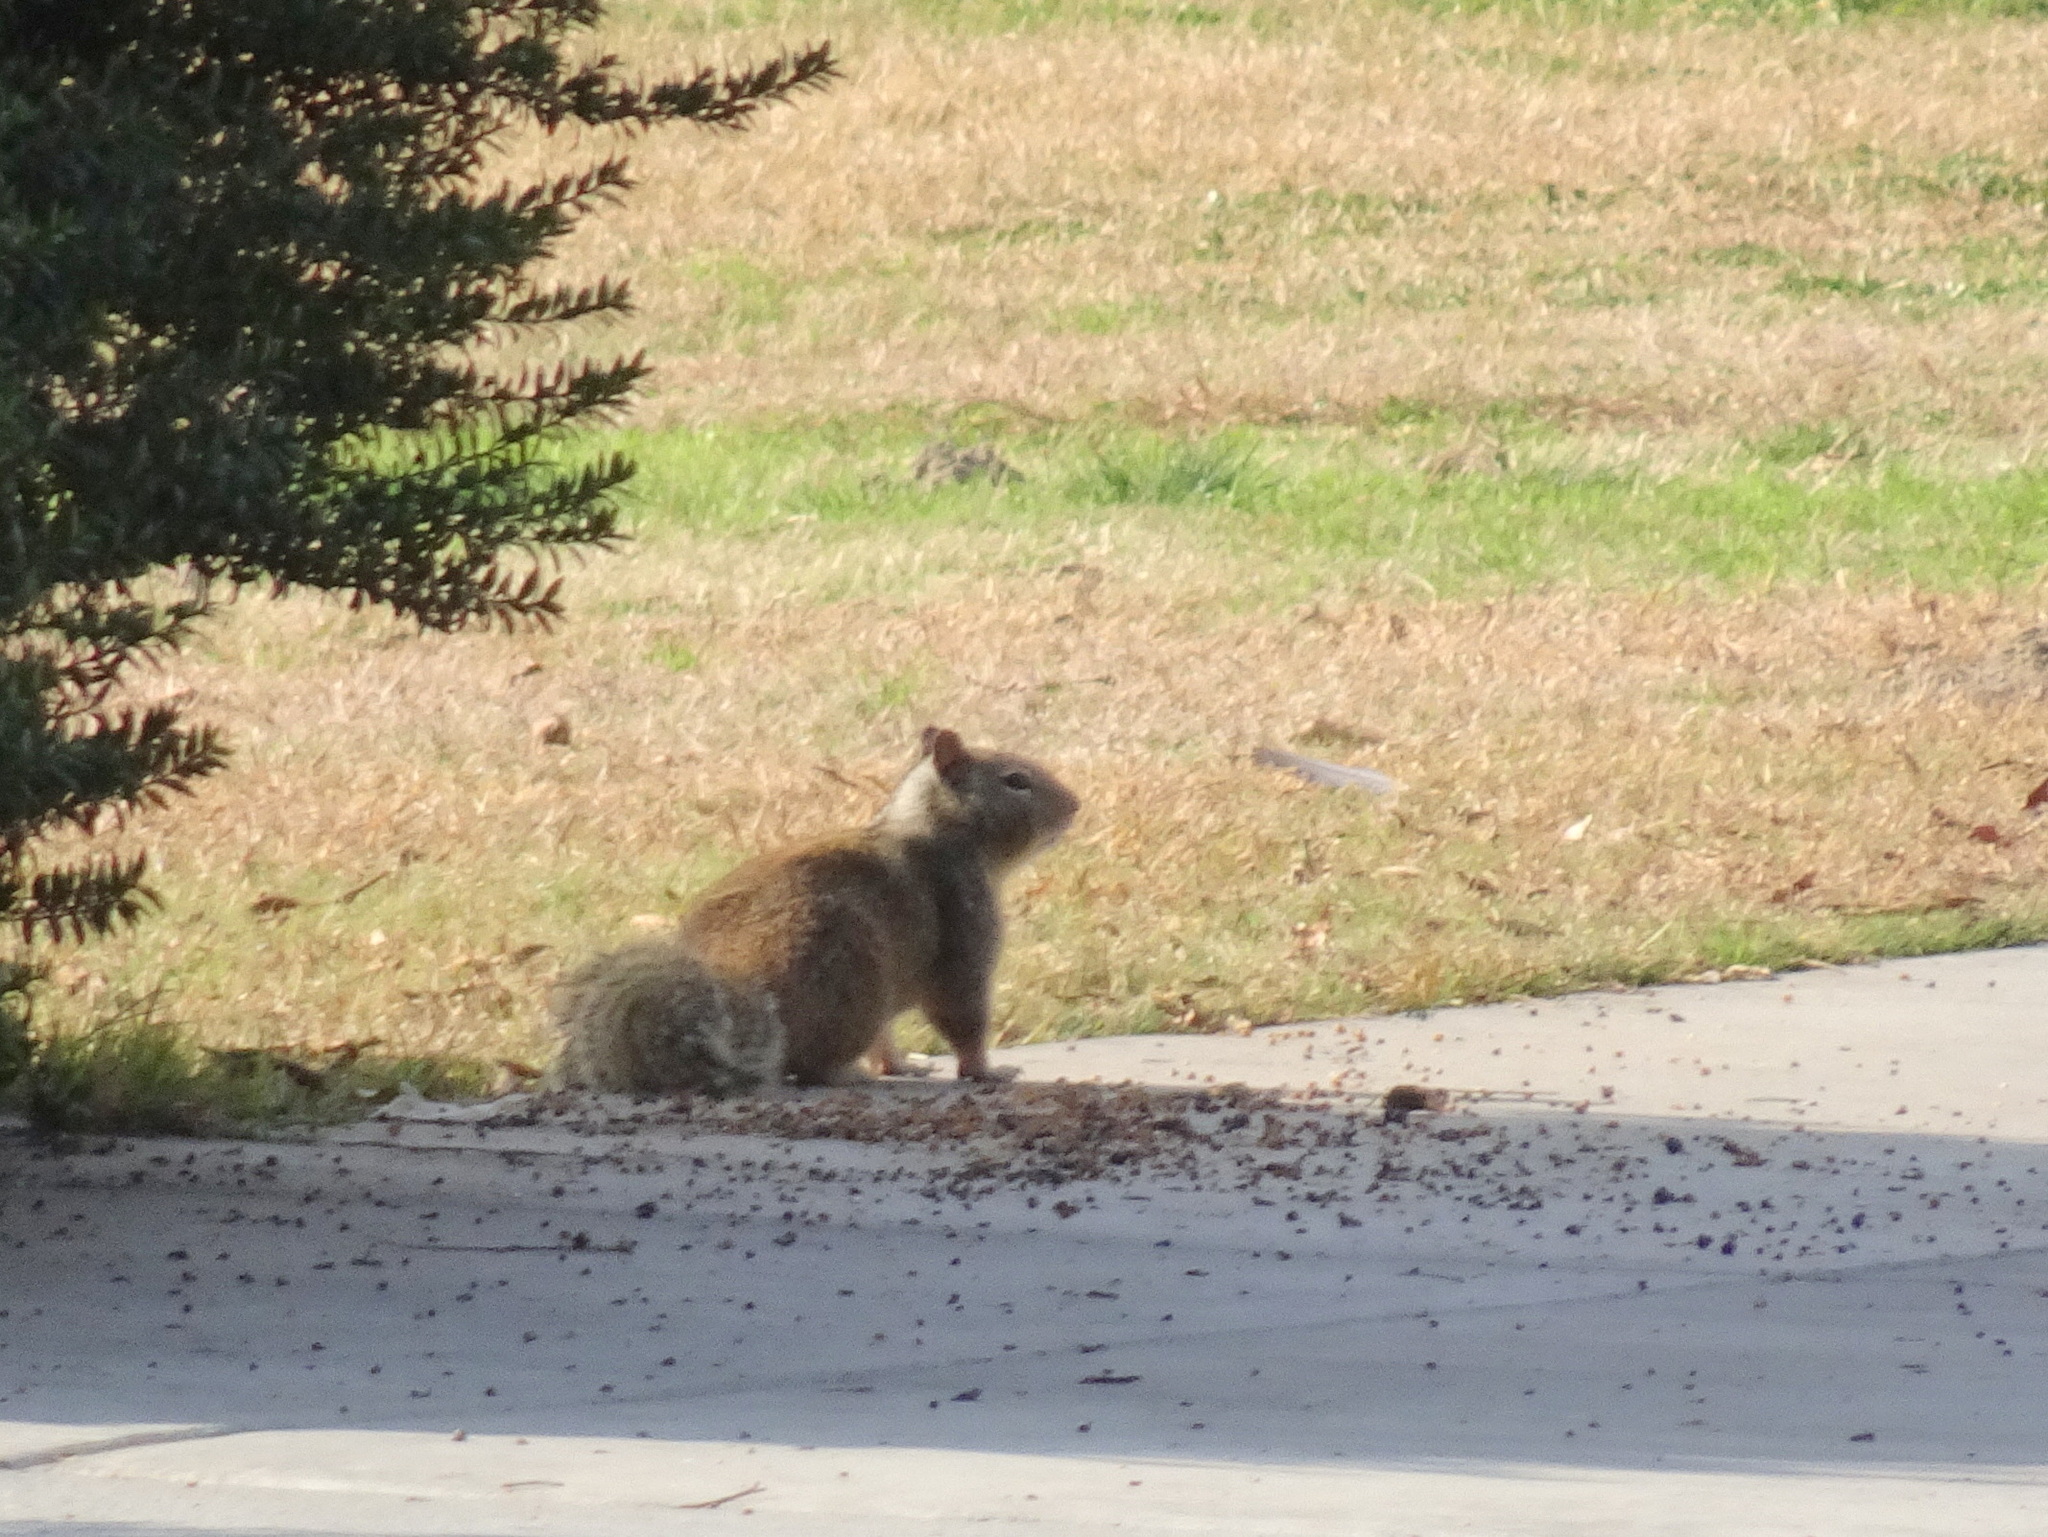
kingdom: Animalia
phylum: Chordata
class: Mammalia
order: Rodentia
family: Sciuridae
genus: Otospermophilus
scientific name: Otospermophilus beecheyi
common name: California ground squirrel
